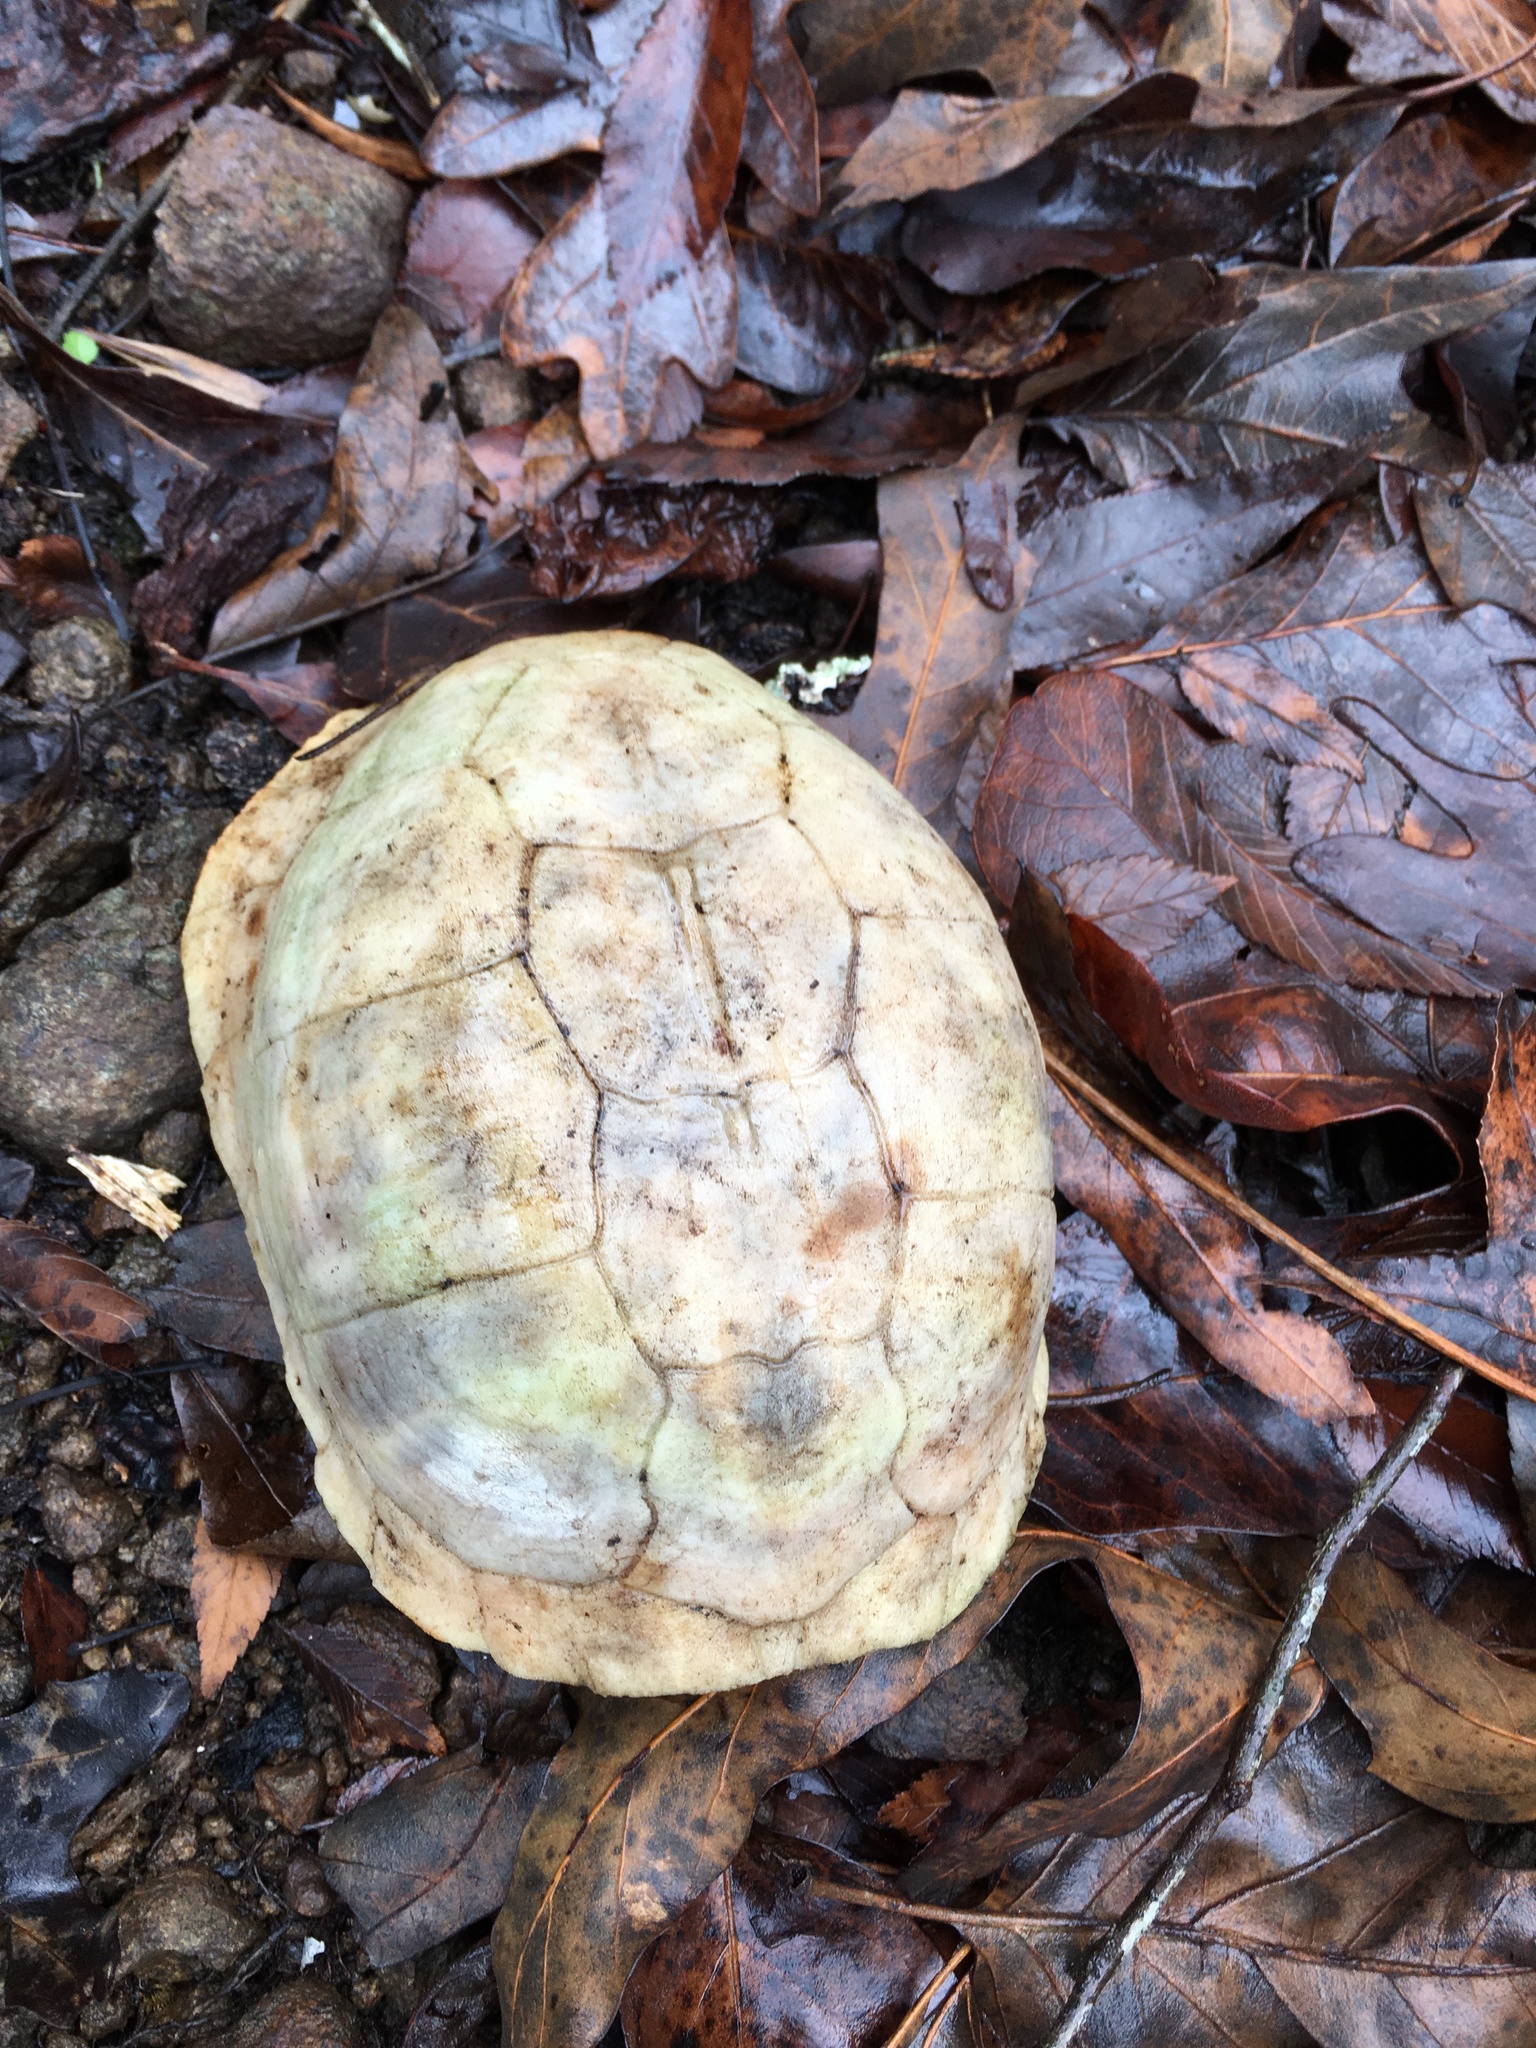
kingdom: Animalia
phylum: Chordata
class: Testudines
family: Emydidae
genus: Terrapene
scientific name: Terrapene carolina
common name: Common box turtle
